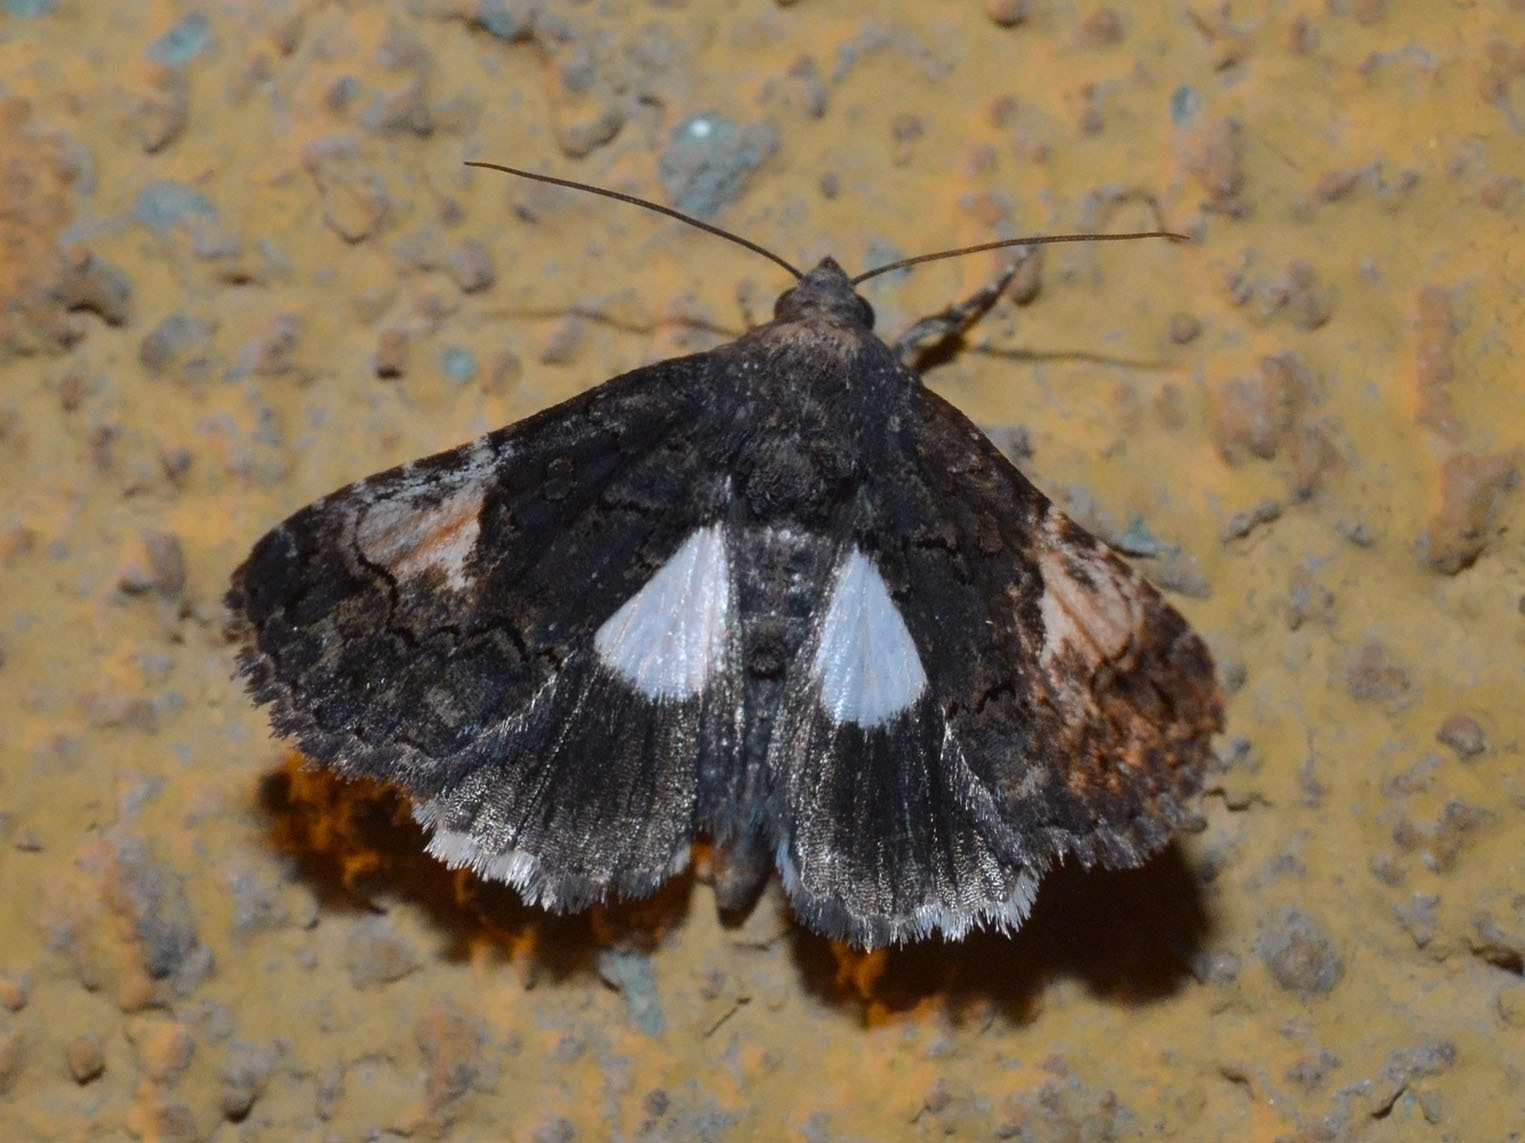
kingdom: Animalia
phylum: Arthropoda
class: Insecta
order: Lepidoptera
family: Noctuidae
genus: Aedia
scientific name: Aedia funesta
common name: The druid
